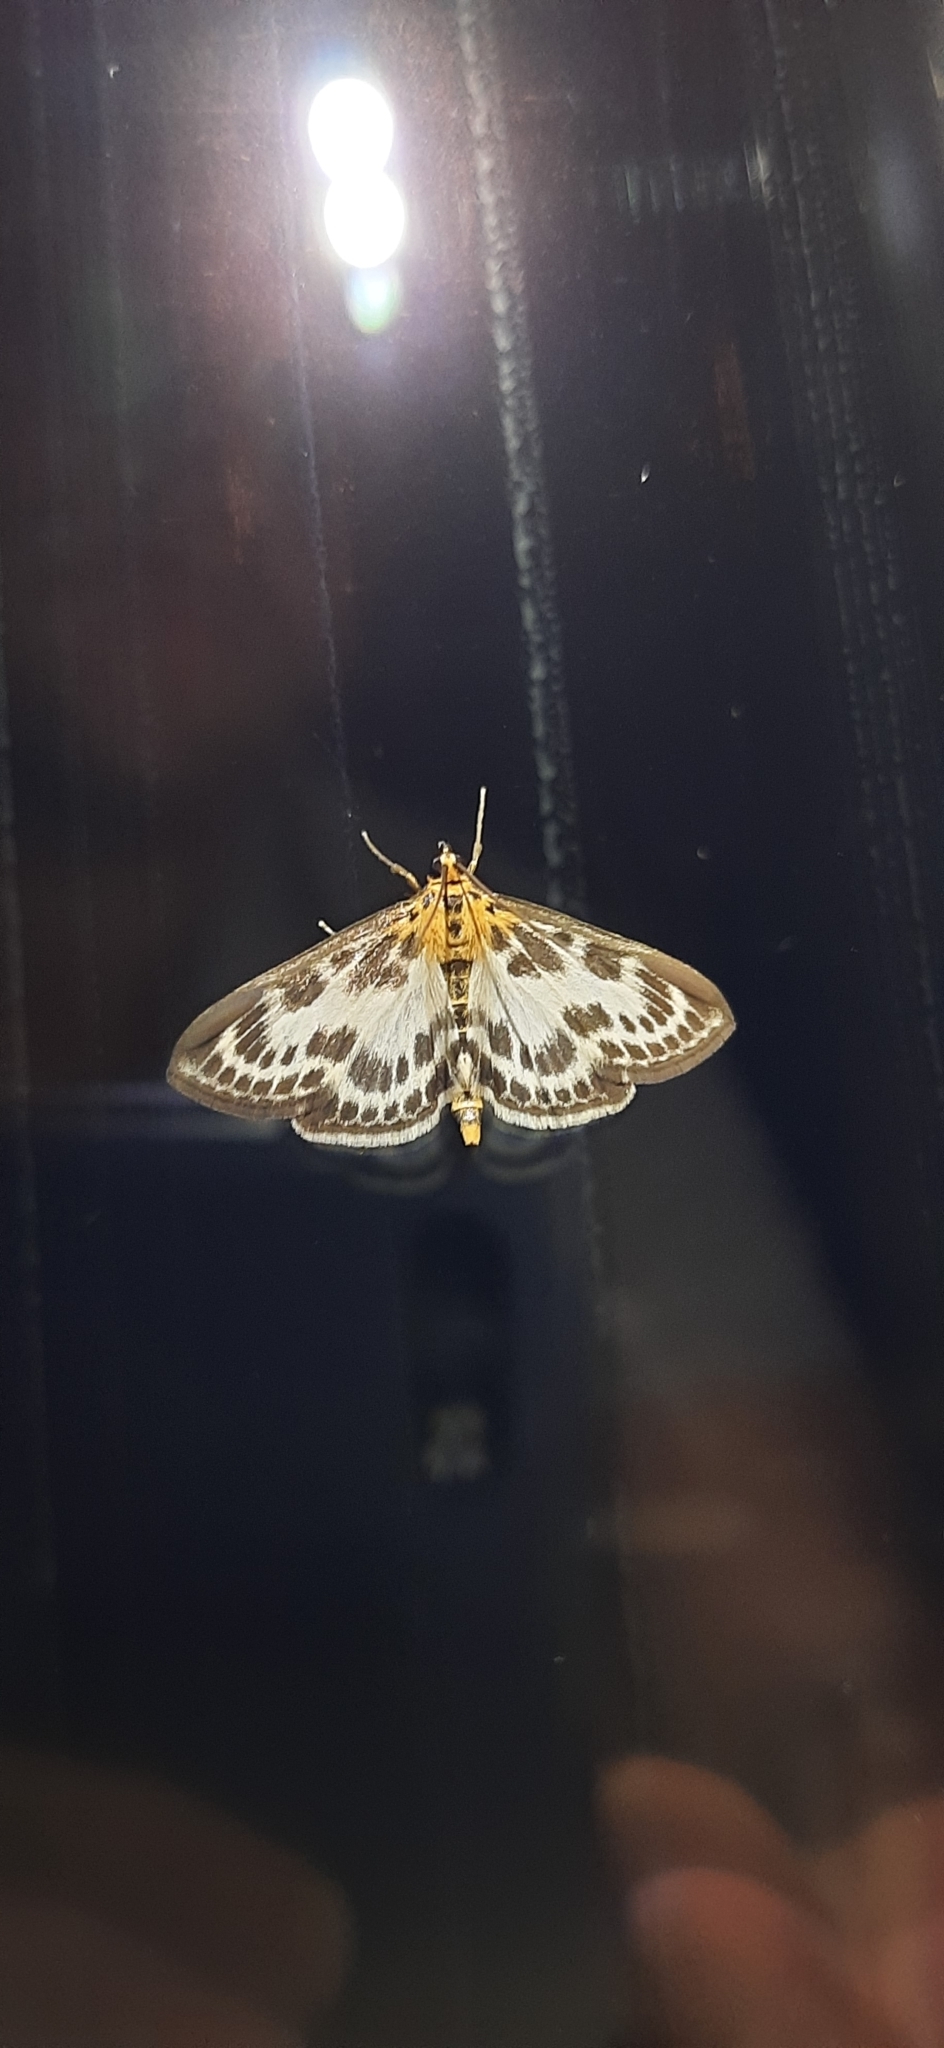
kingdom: Animalia
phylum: Arthropoda
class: Insecta
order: Lepidoptera
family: Crambidae
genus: Anania
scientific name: Anania hortulata
